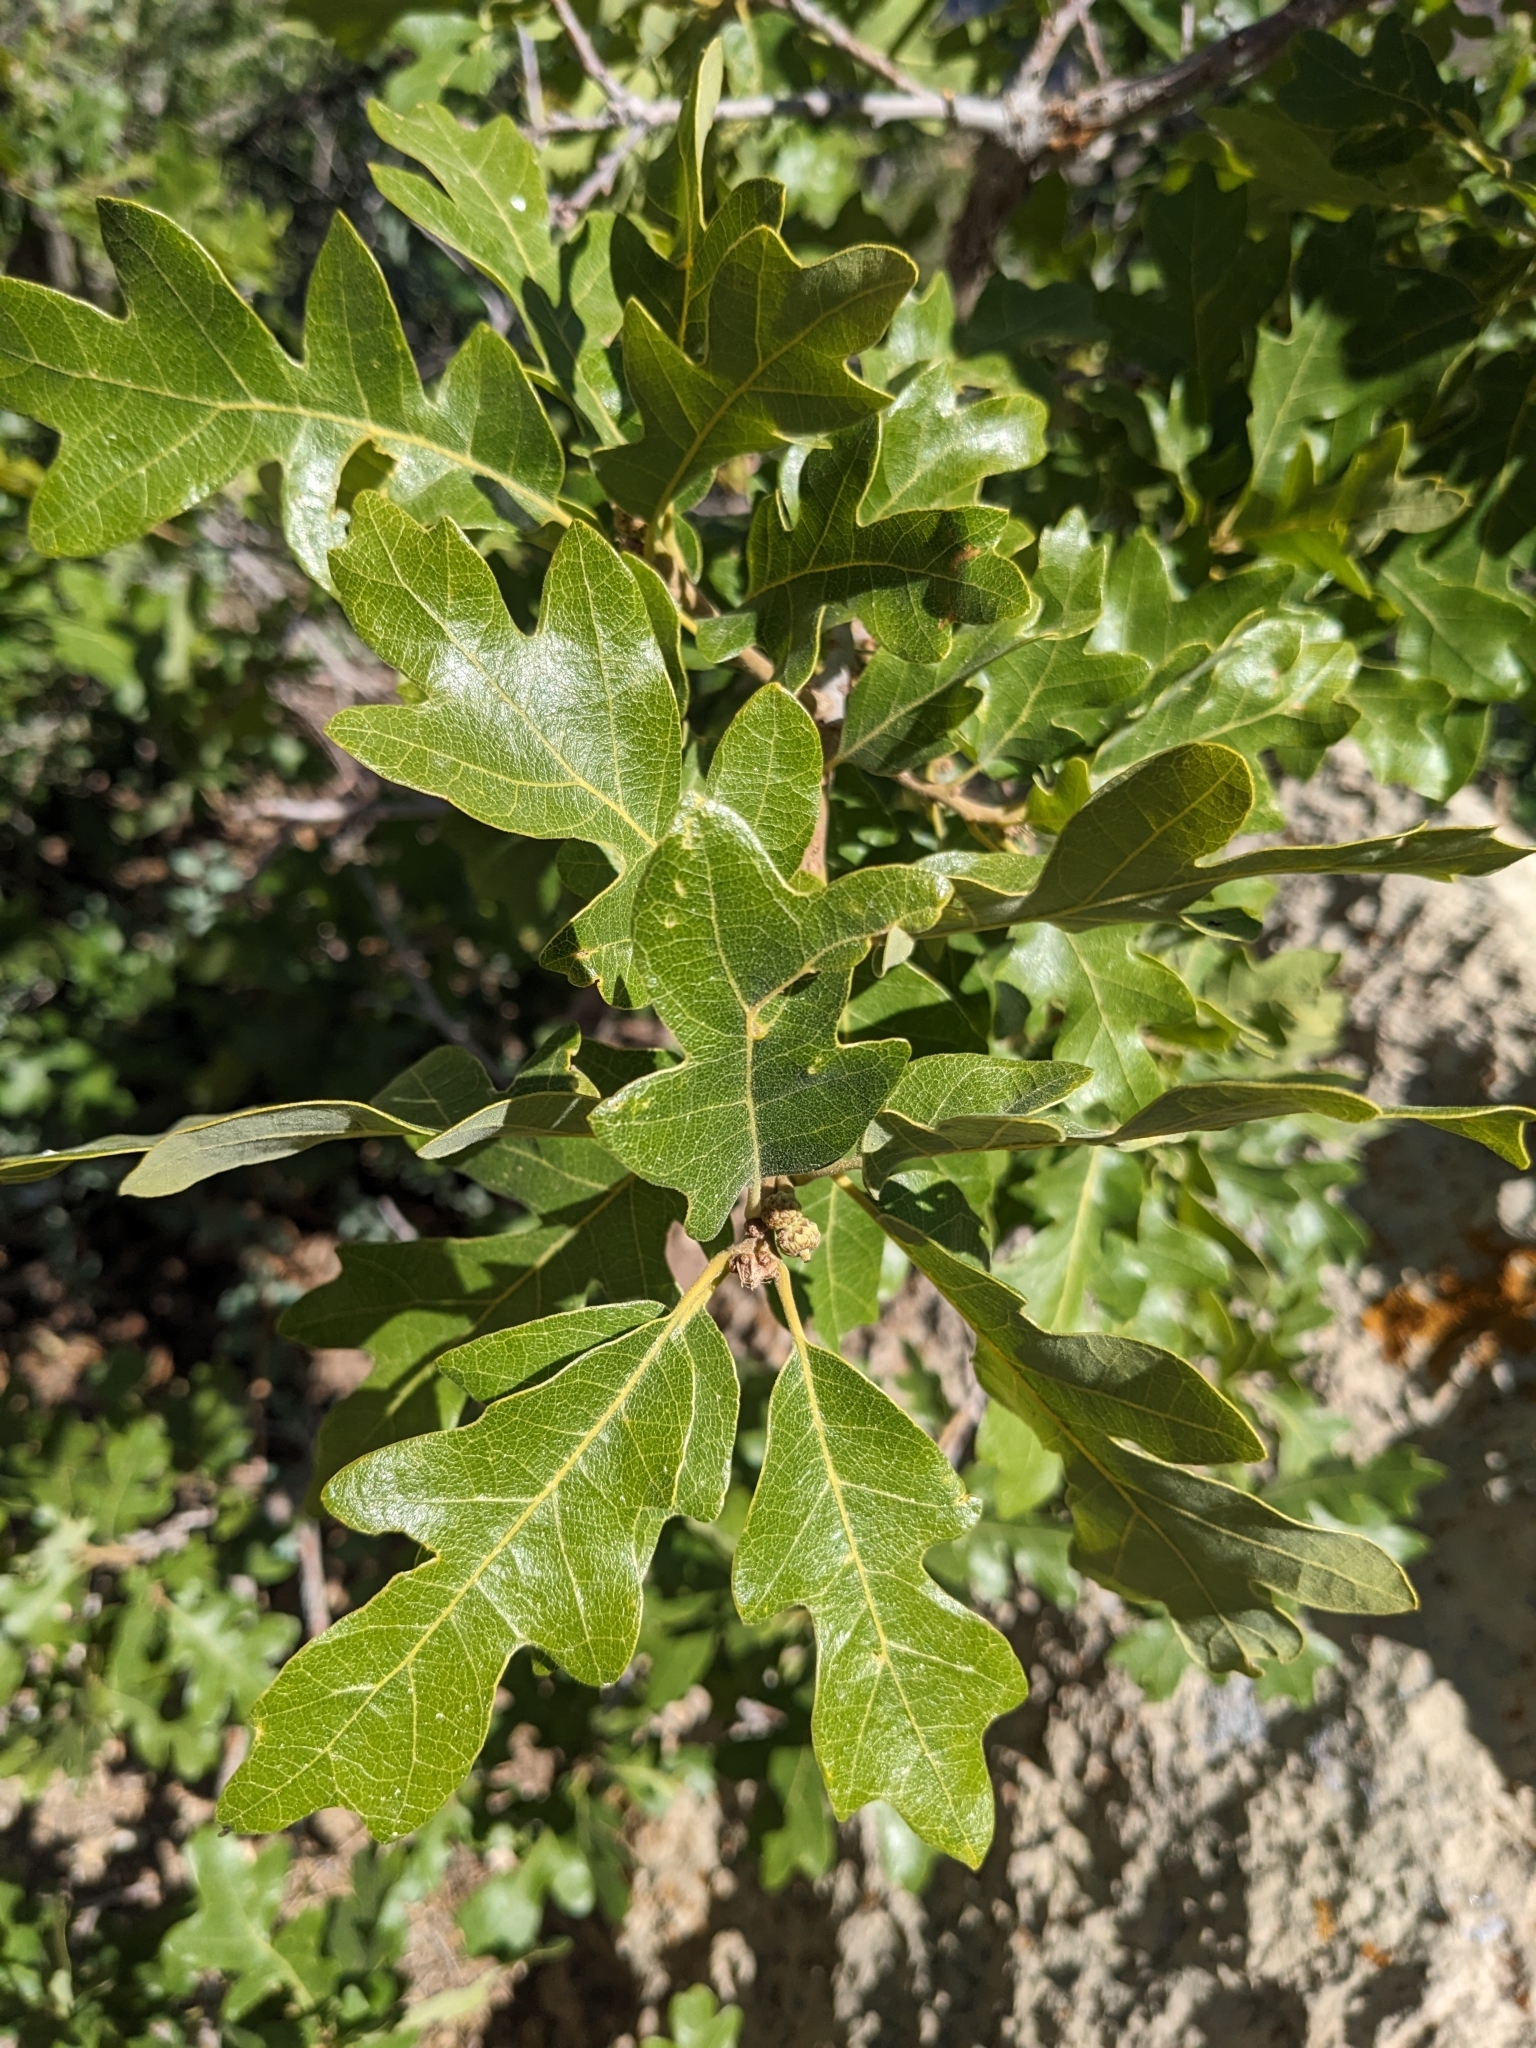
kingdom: Plantae
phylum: Tracheophyta
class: Magnoliopsida
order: Fagales
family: Fagaceae
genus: Quercus
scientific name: Quercus gambelii
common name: Gambel oak
